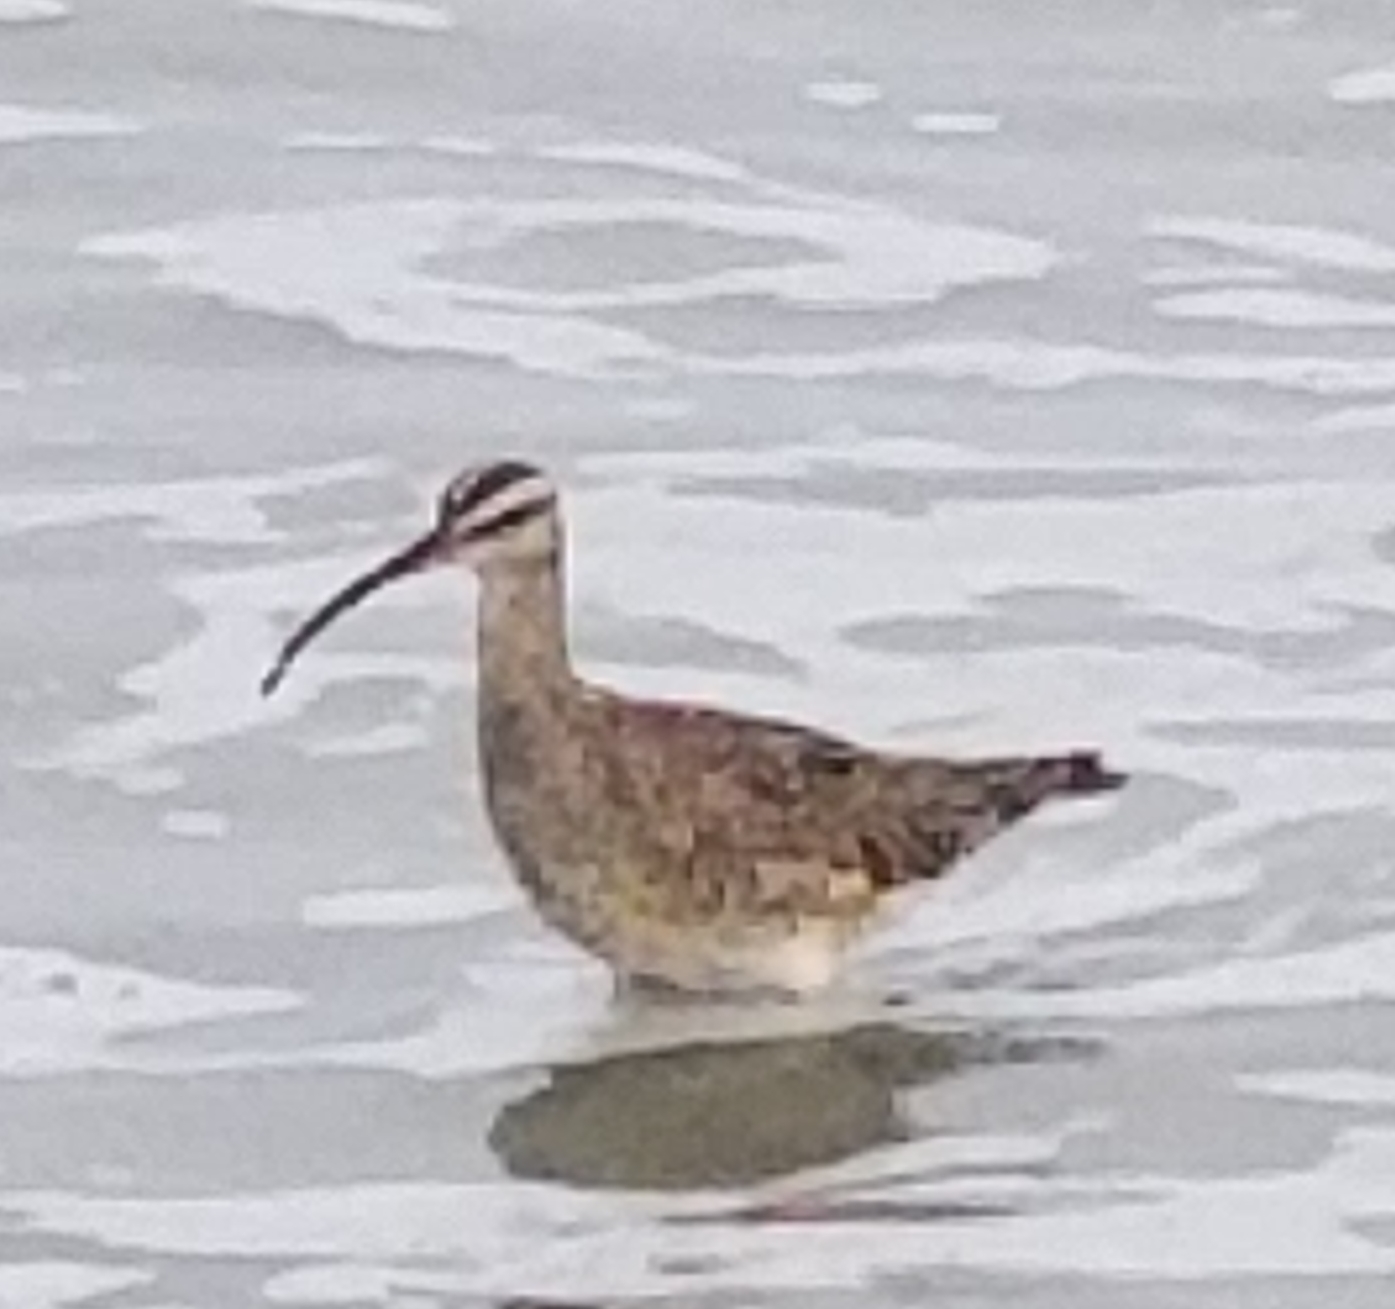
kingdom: Animalia
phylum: Chordata
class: Aves
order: Charadriiformes
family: Scolopacidae
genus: Numenius
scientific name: Numenius phaeopus
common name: Whimbrel
